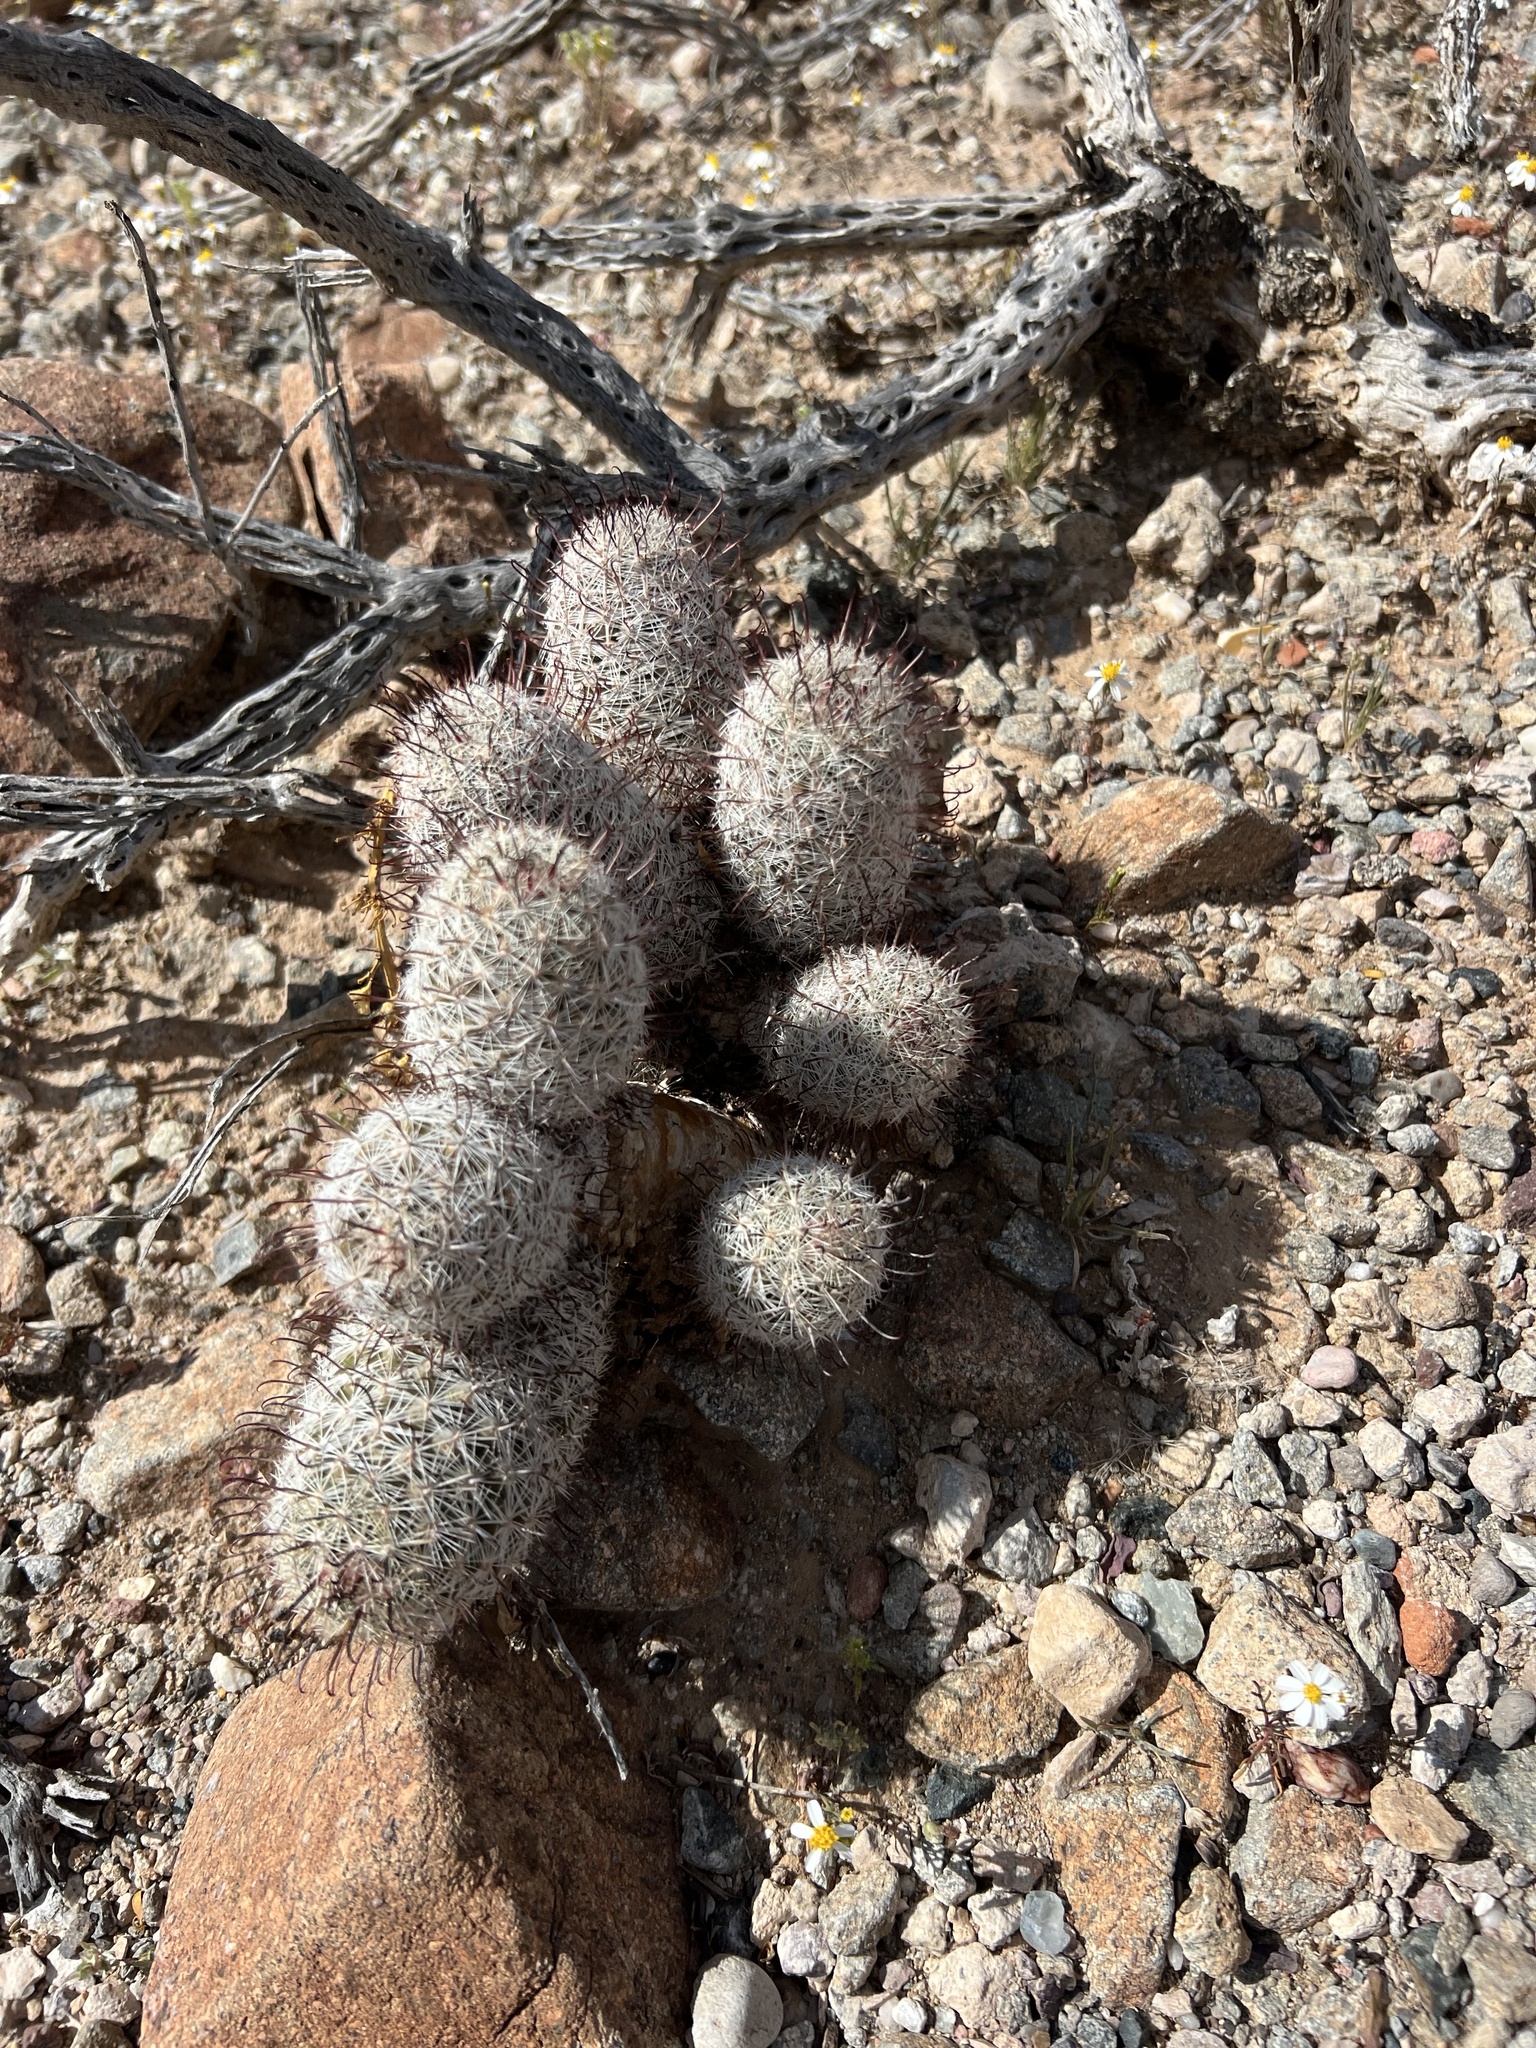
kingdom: Plantae
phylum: Tracheophyta
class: Magnoliopsida
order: Caryophyllales
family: Cactaceae
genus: Cochemiea
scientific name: Cochemiea grahamii
